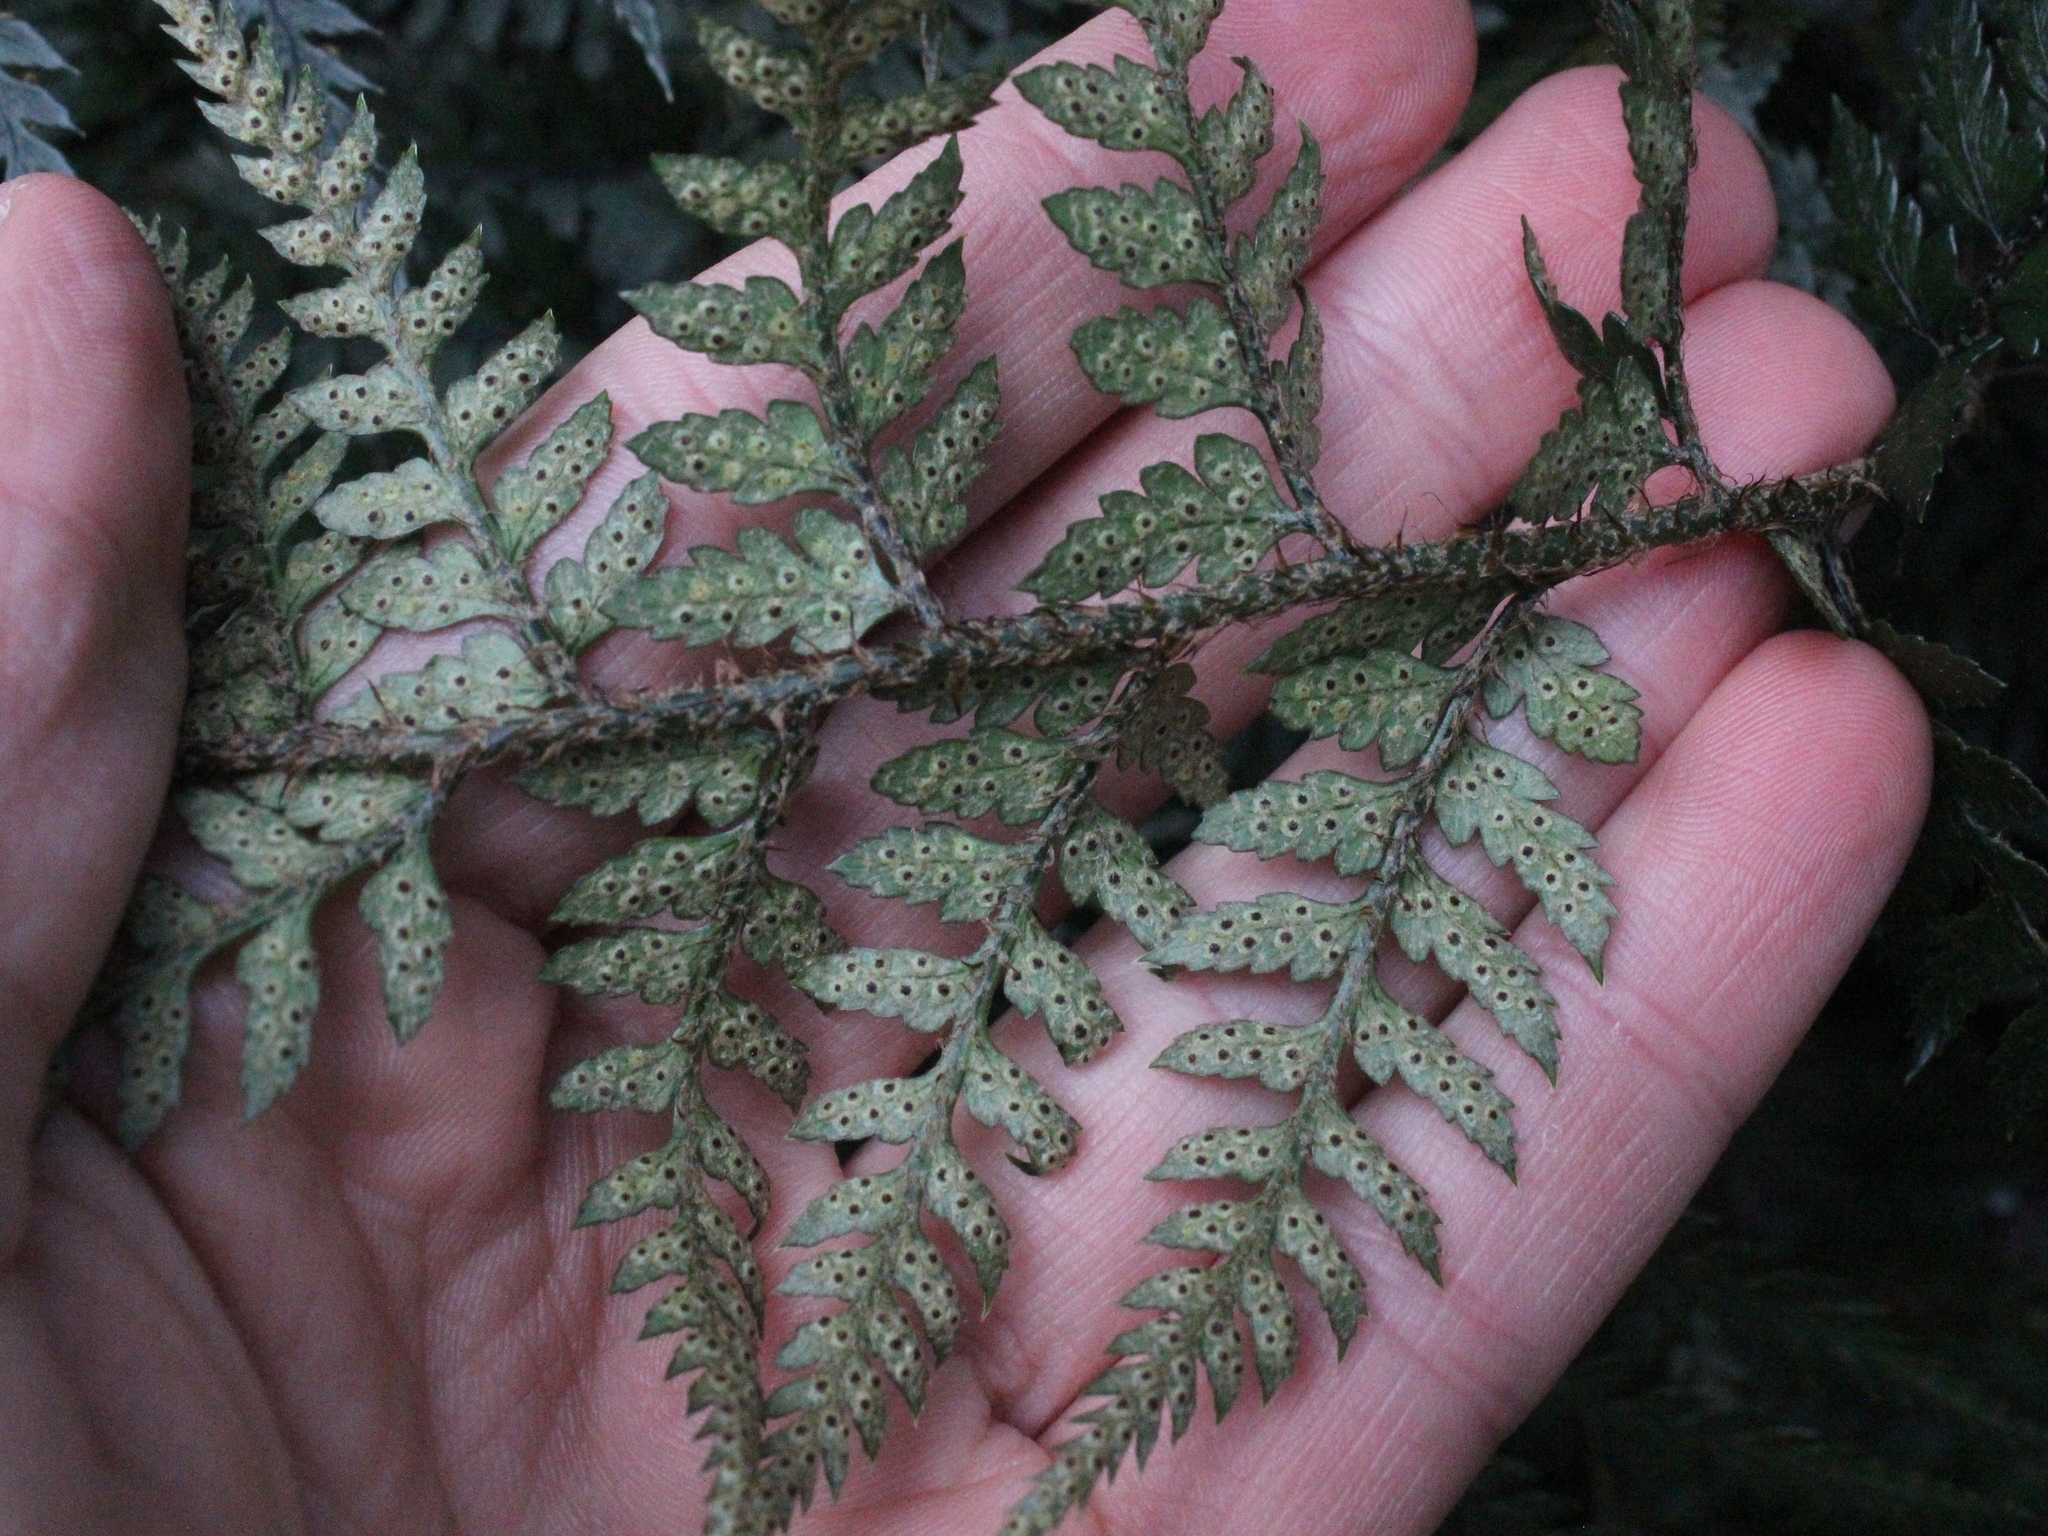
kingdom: Plantae
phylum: Tracheophyta
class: Polypodiopsida
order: Polypodiales
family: Dryopteridaceae
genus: Polystichum
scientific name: Polystichum neozelandicum
